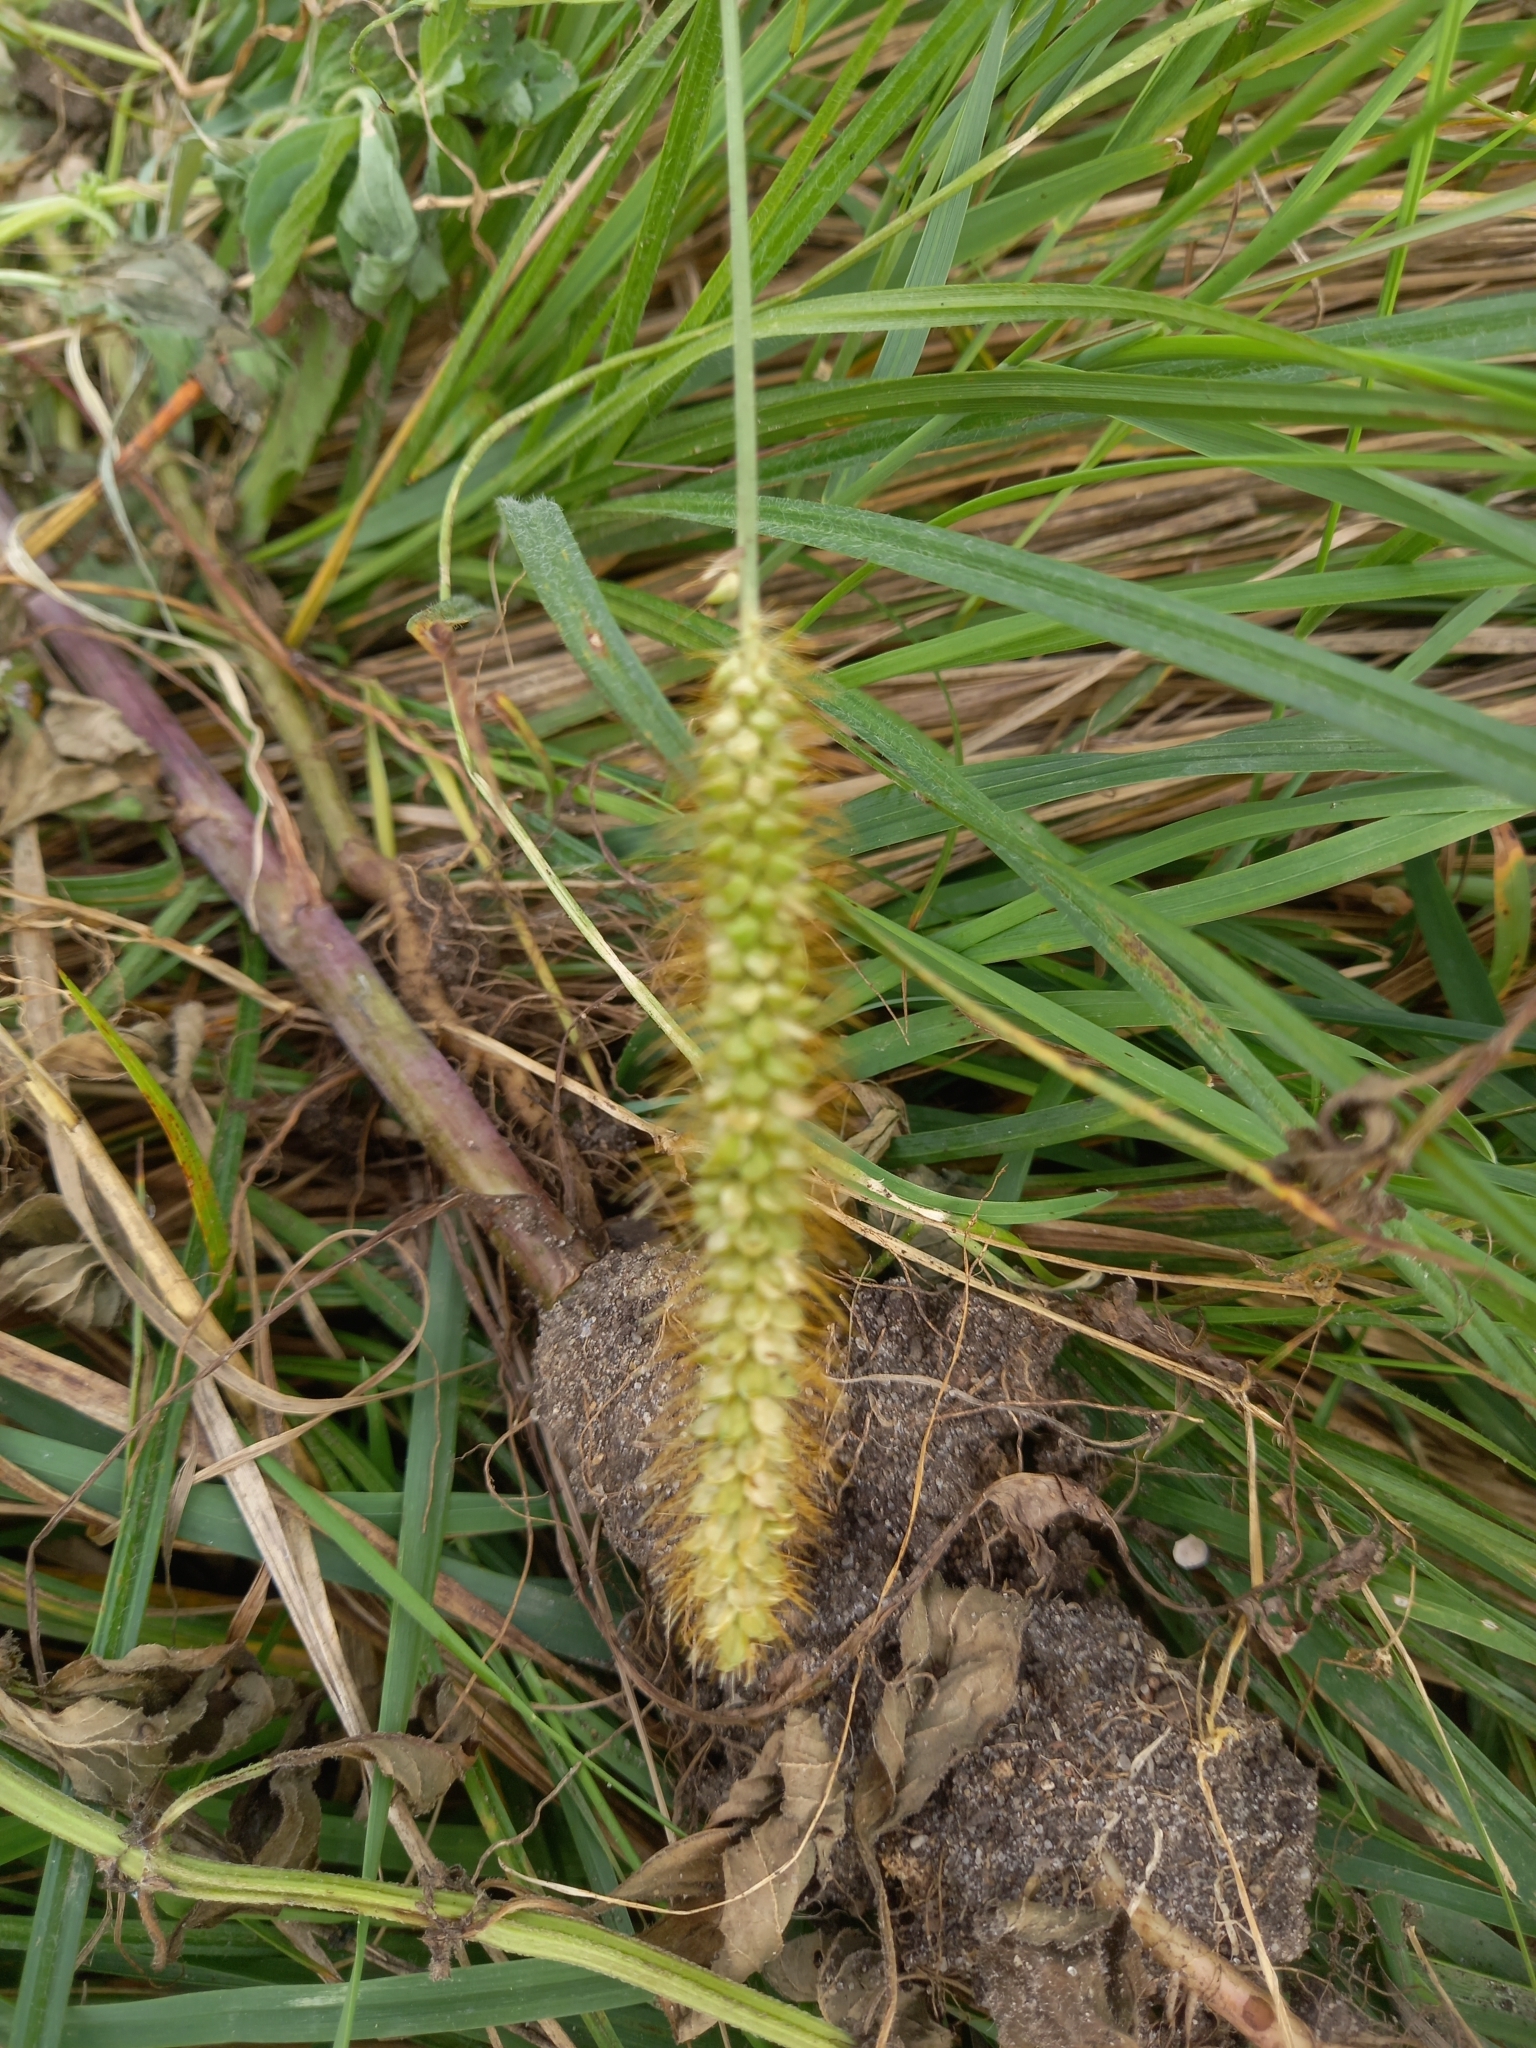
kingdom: Plantae
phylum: Tracheophyta
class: Liliopsida
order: Poales
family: Poaceae
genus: Setaria
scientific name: Setaria pumila
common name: Yellow bristle-grass
